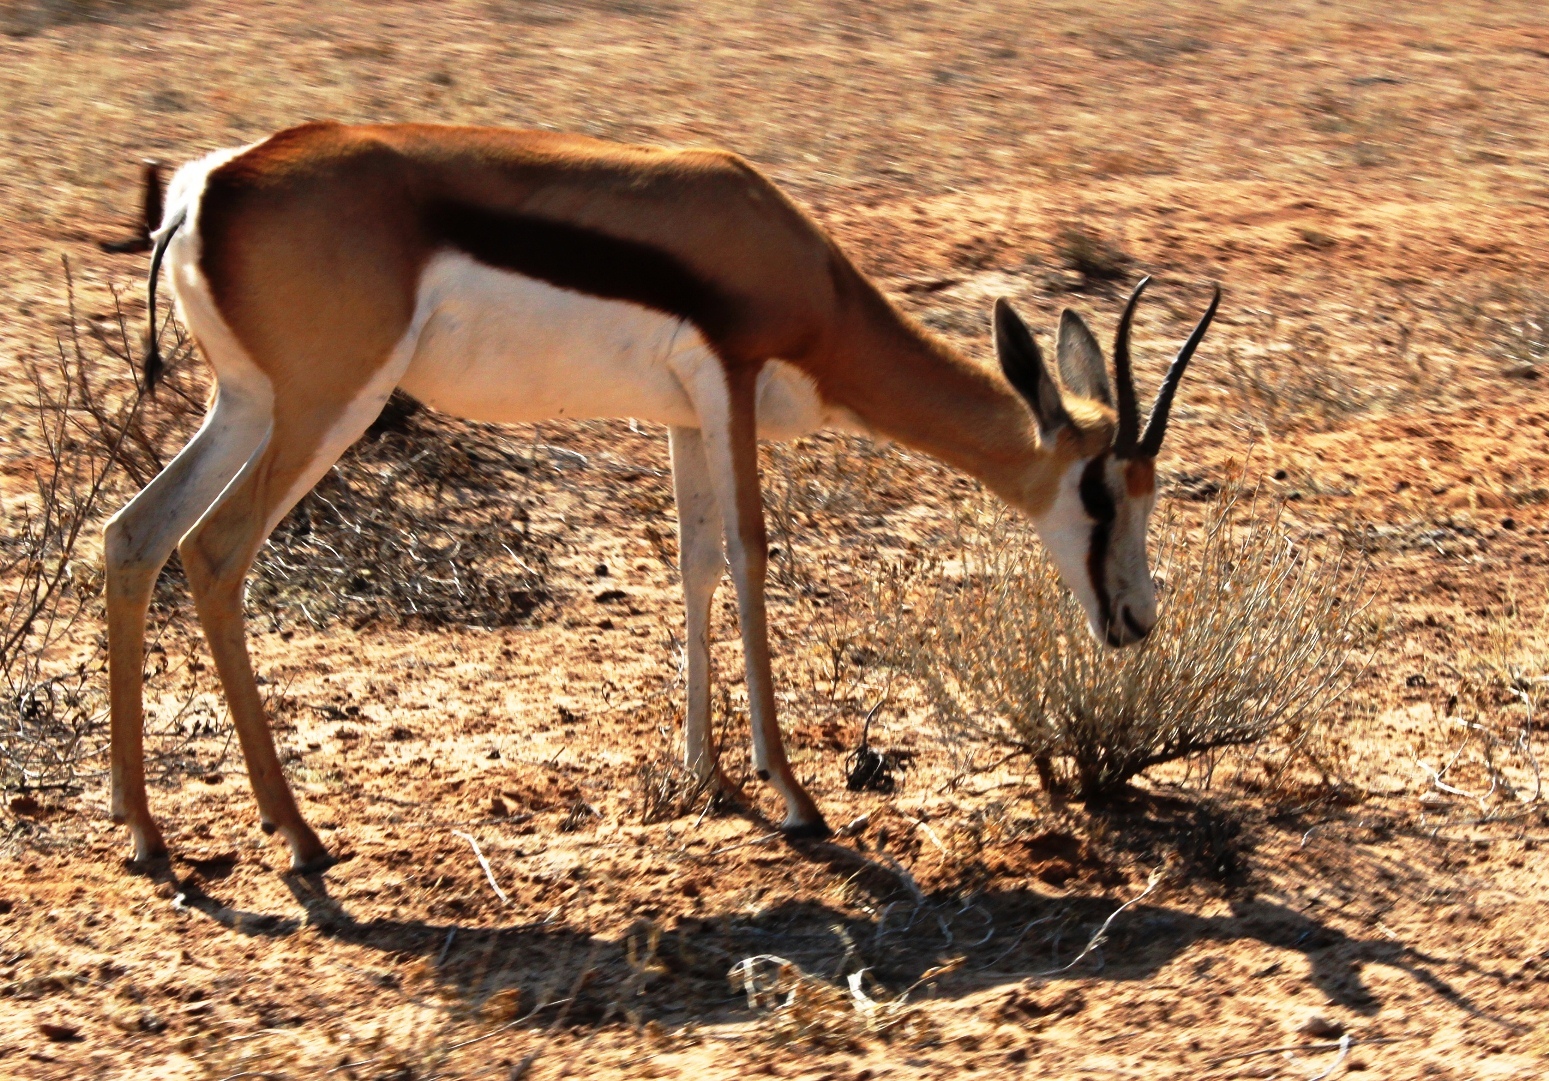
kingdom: Animalia
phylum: Chordata
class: Mammalia
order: Artiodactyla
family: Bovidae
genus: Antidorcas
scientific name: Antidorcas marsupialis
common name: Springbok
